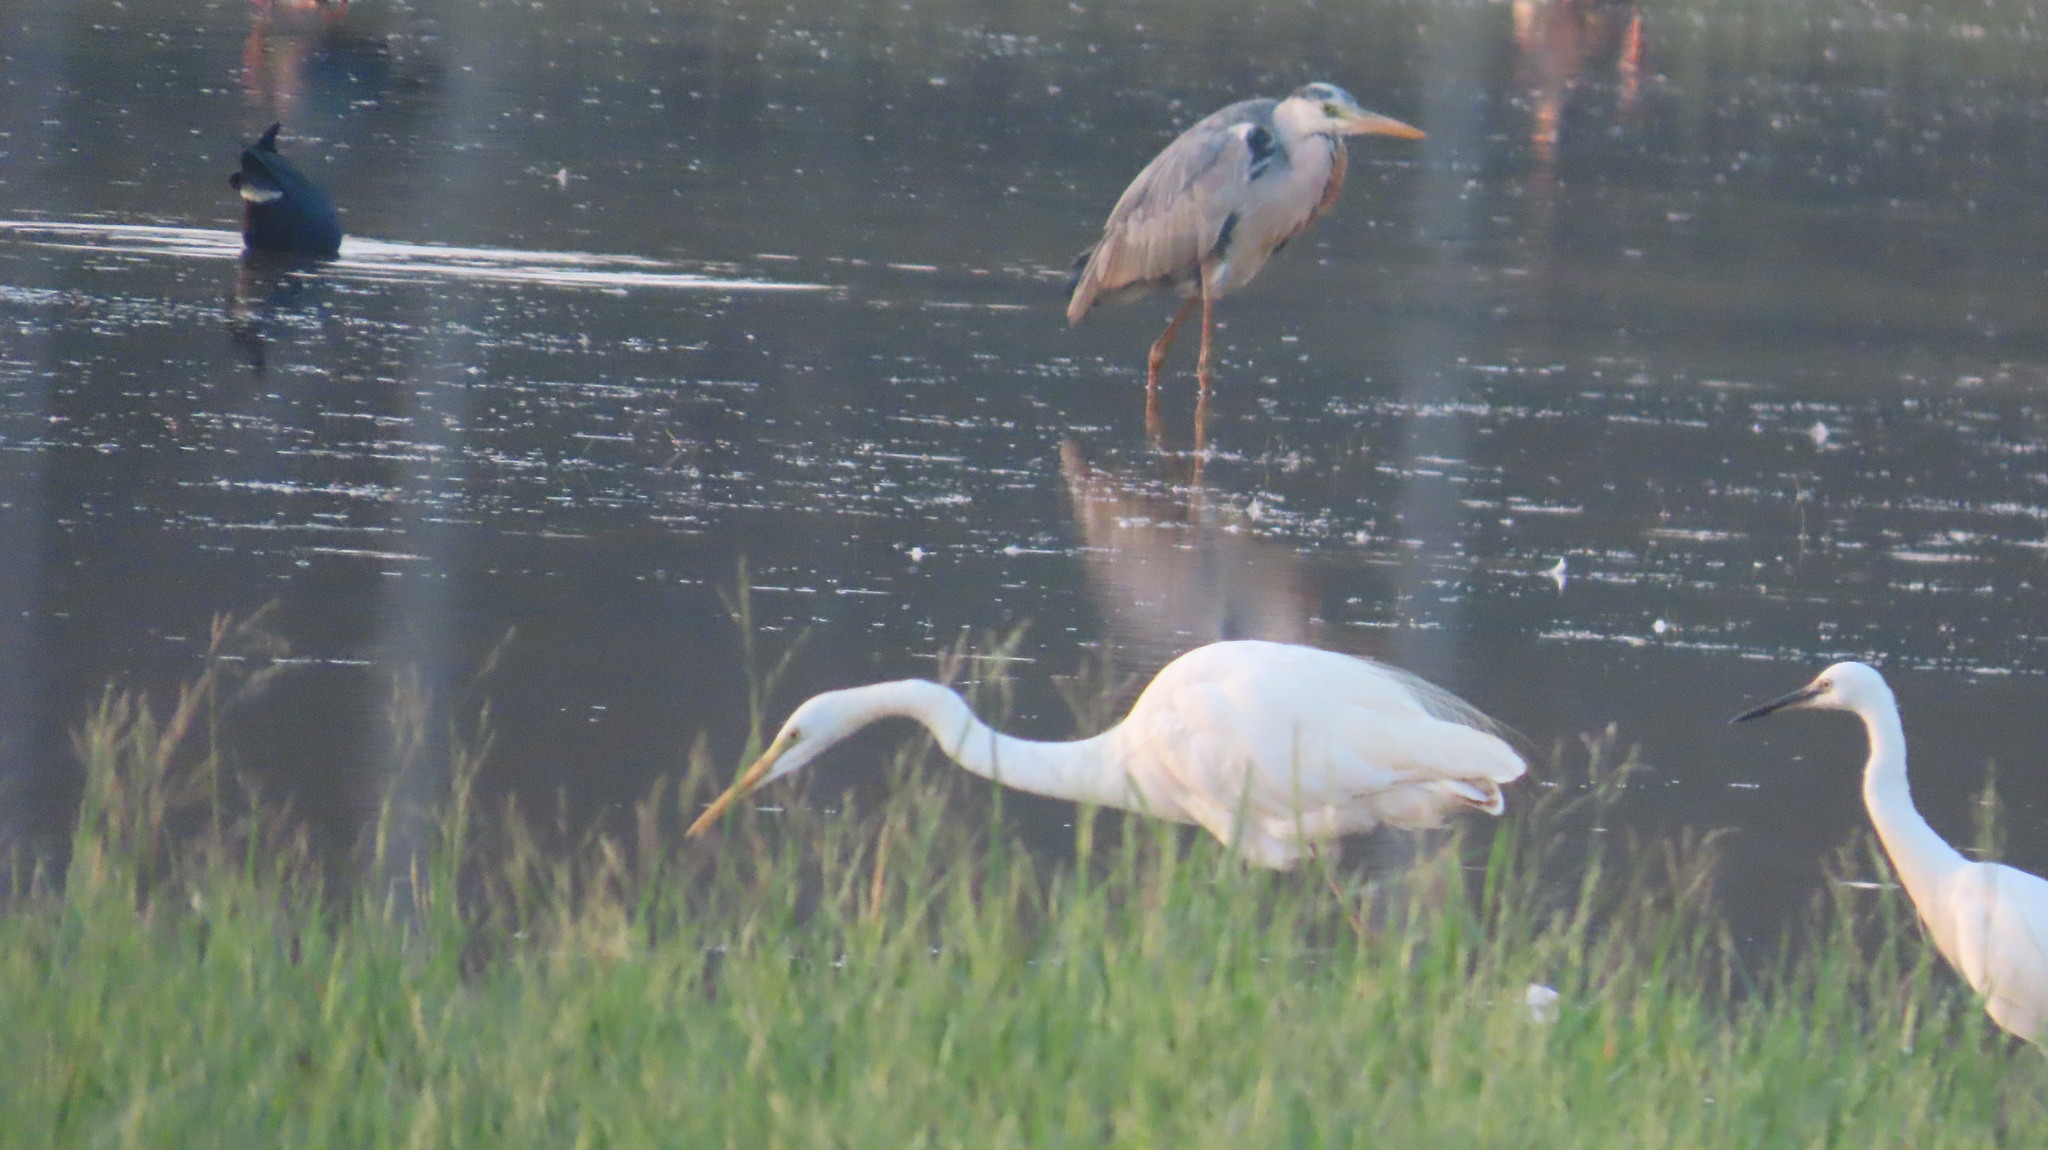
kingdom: Animalia
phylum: Chordata
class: Aves
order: Pelecaniformes
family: Ardeidae
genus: Ardea
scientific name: Ardea cinerea
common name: Grey heron
